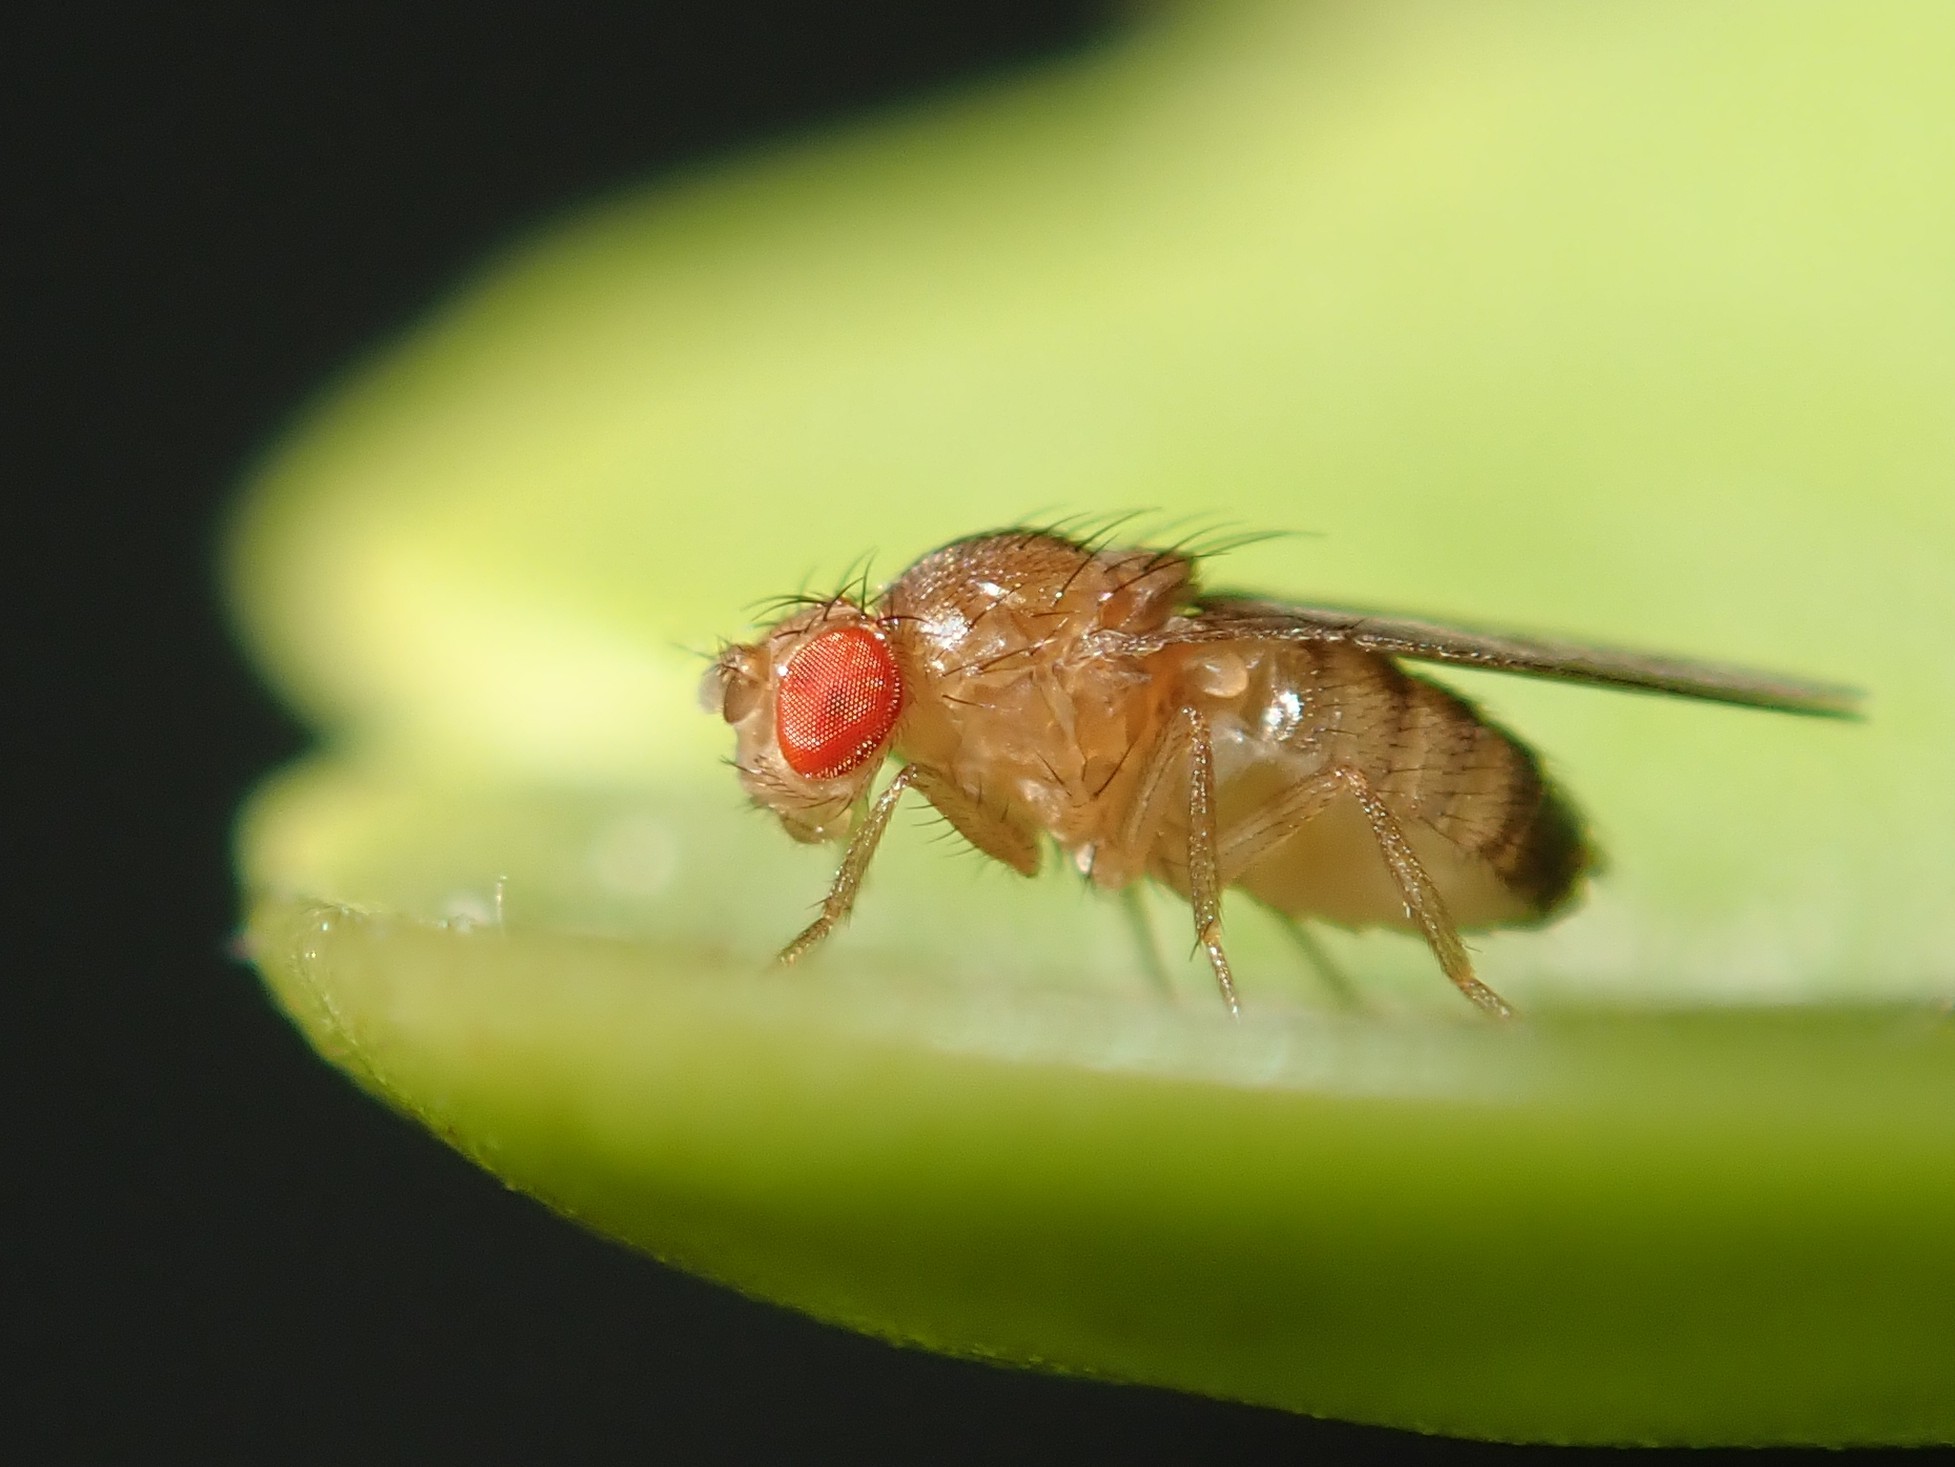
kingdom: Animalia
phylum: Arthropoda
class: Insecta
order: Diptera
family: Drosophilidae
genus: Drosophila
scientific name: Drosophila melanogaster
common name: Pomace fly
